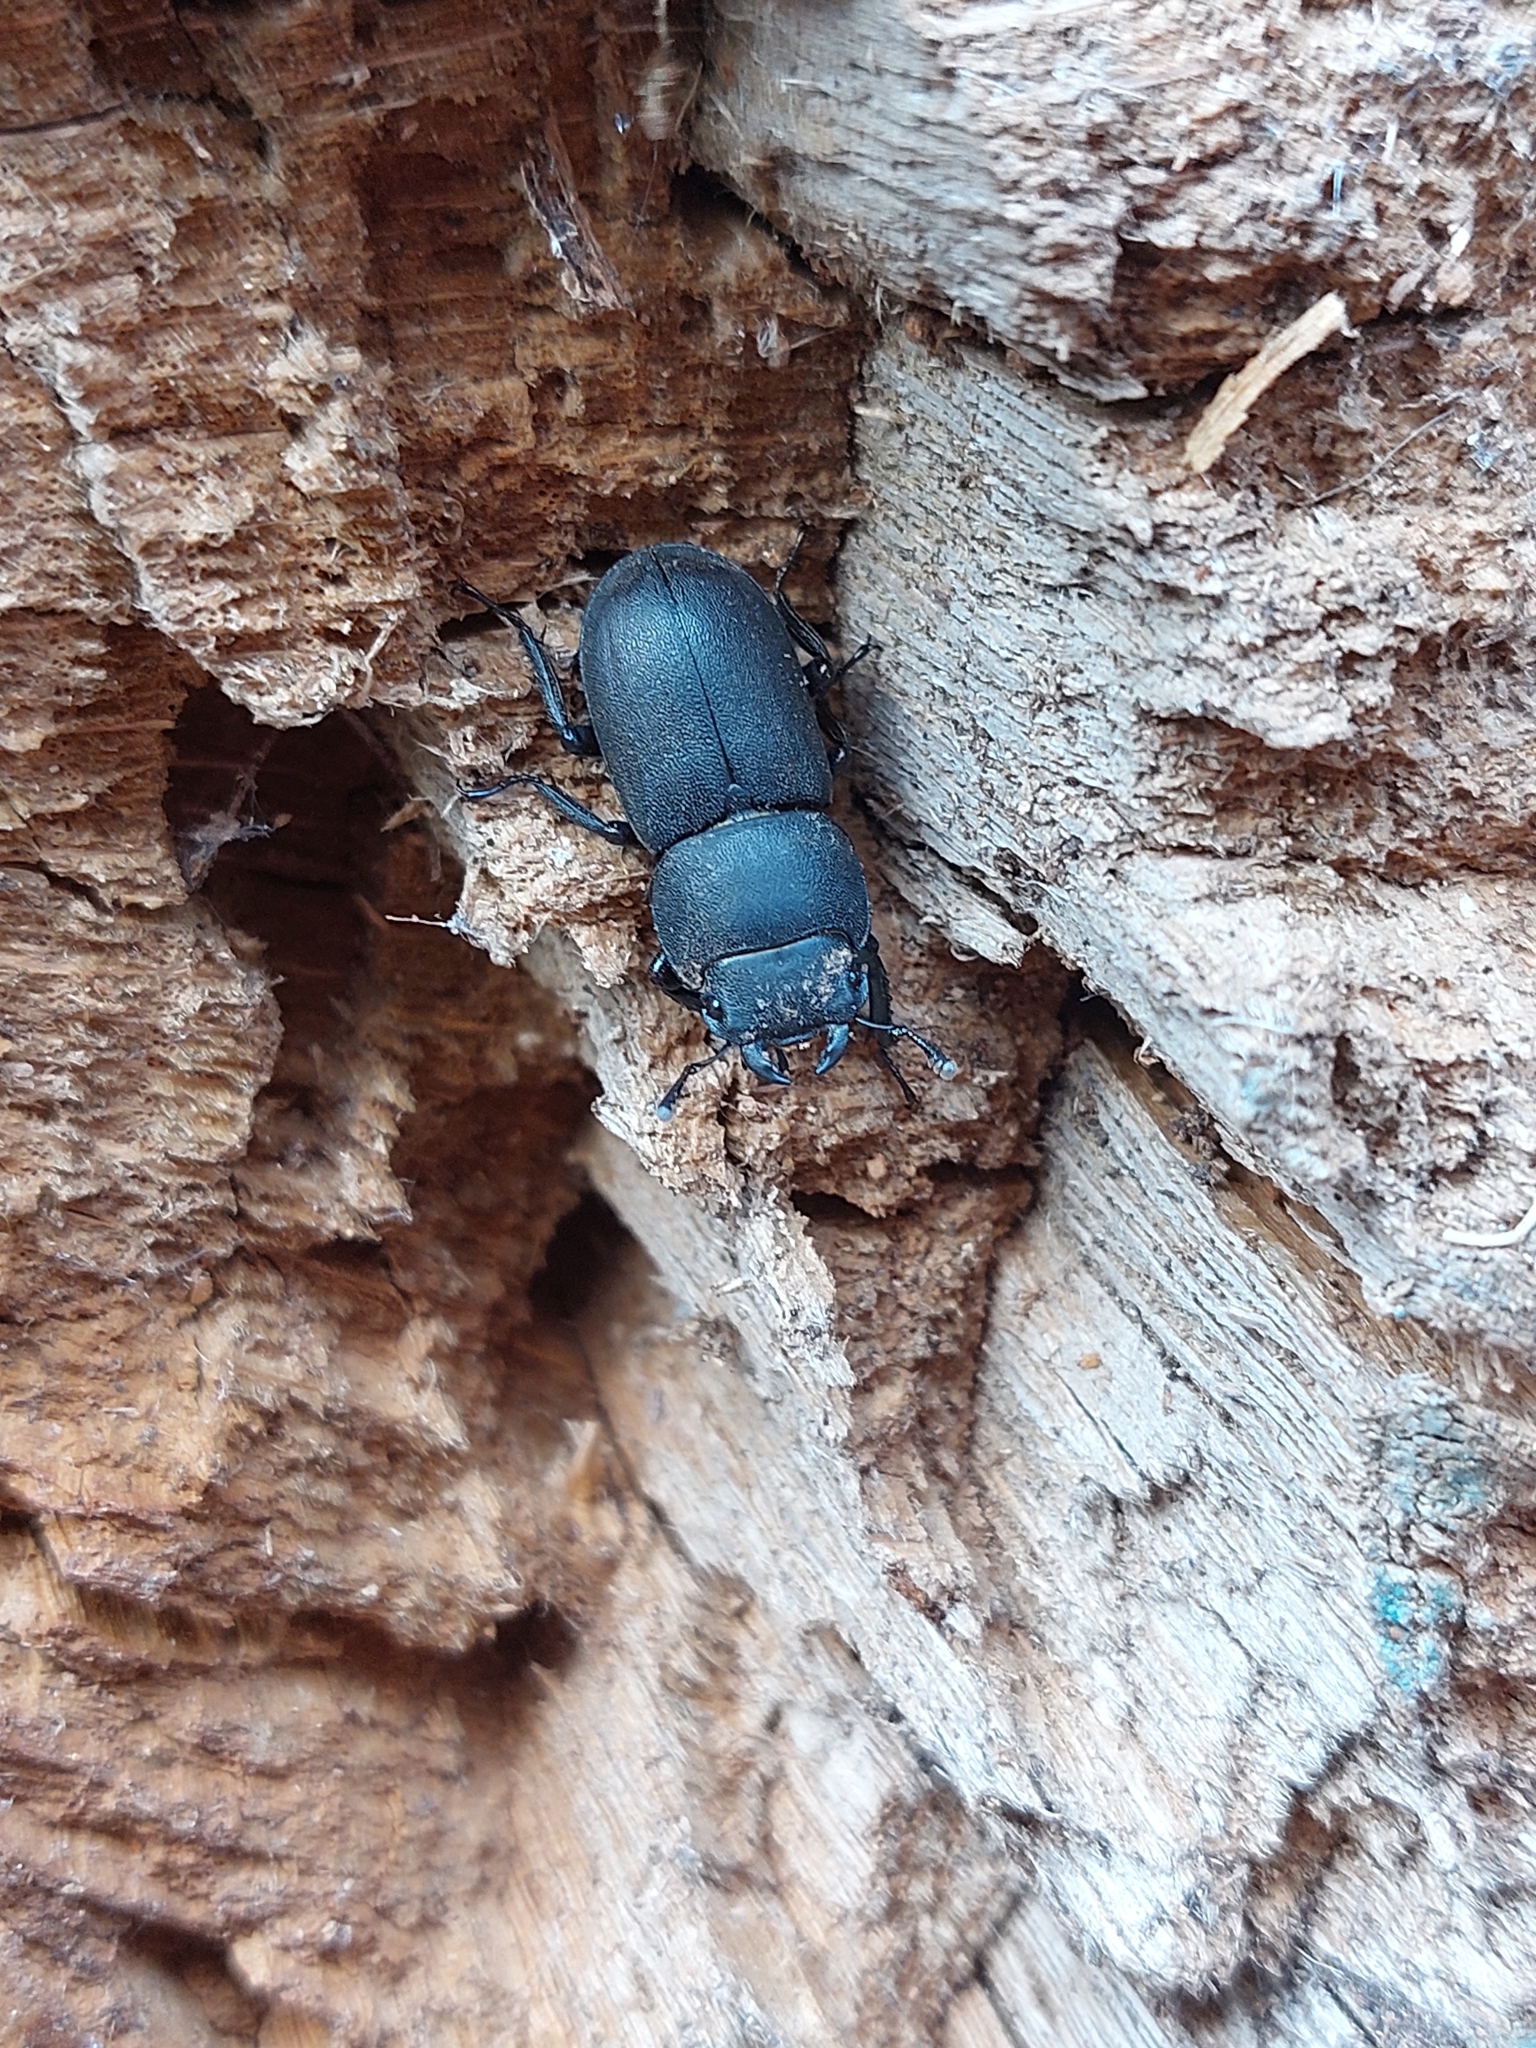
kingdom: Animalia
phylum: Arthropoda
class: Insecta
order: Coleoptera
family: Lucanidae
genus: Dorcus
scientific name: Dorcus parallelipipedus
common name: Lesser stag beetle
